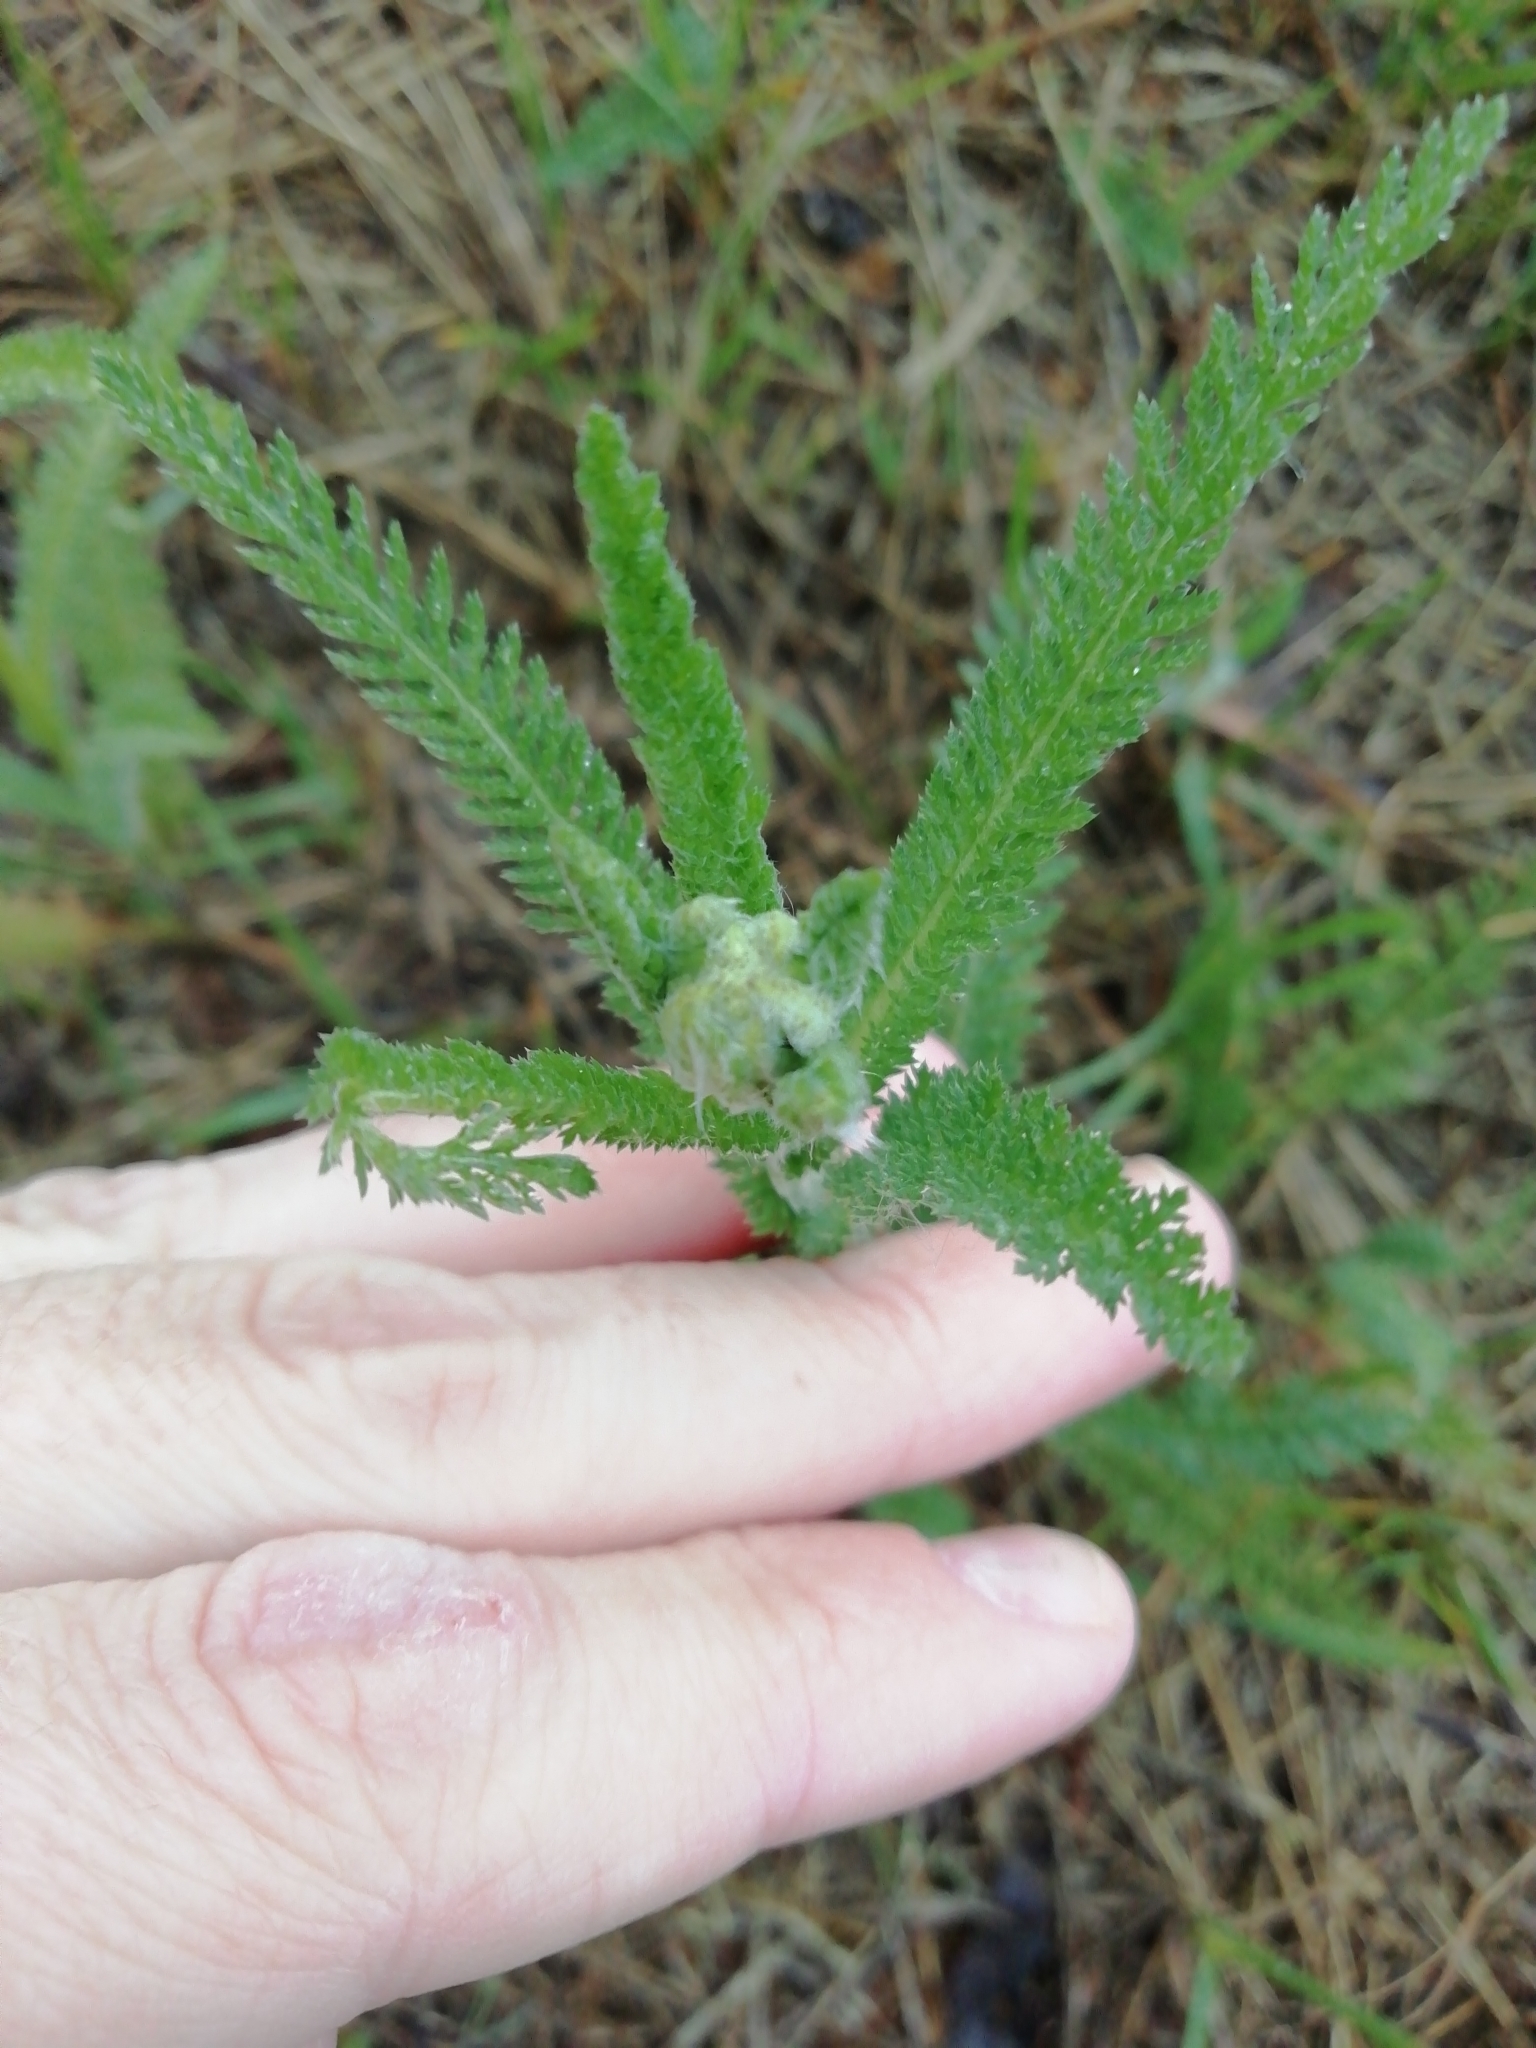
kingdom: Plantae
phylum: Tracheophyta
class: Magnoliopsida
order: Asterales
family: Asteraceae
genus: Achillea
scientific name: Achillea millefolium
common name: Yarrow
